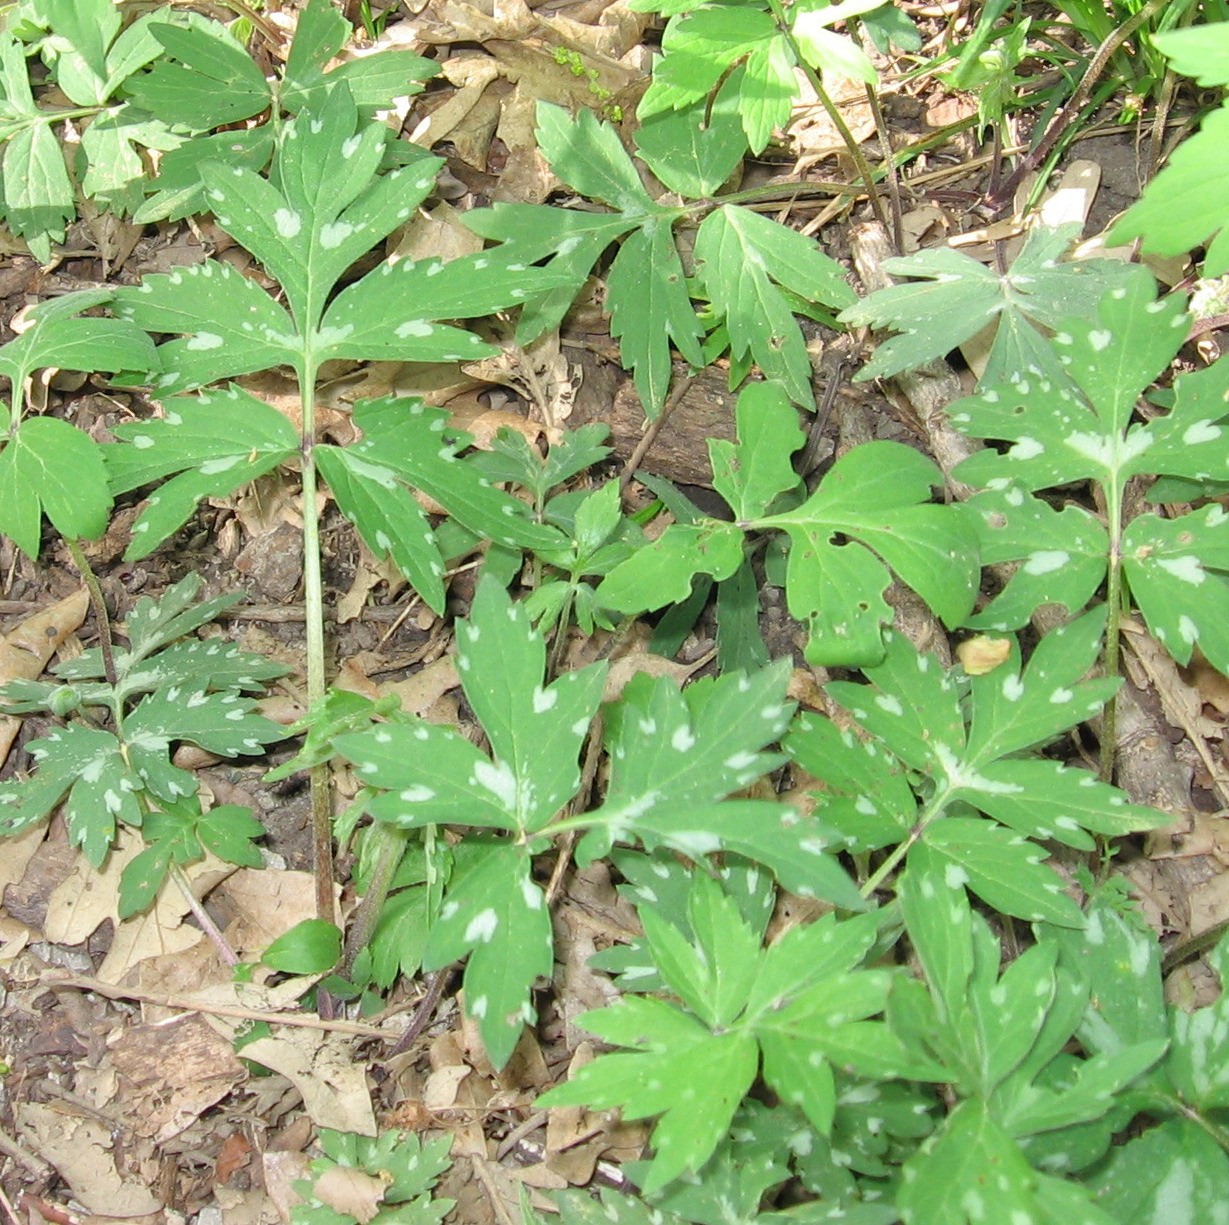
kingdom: Plantae
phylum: Tracheophyta
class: Magnoliopsida
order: Boraginales
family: Hydrophyllaceae
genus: Hydrophyllum
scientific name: Hydrophyllum virginianum
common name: Virginia waterleaf
